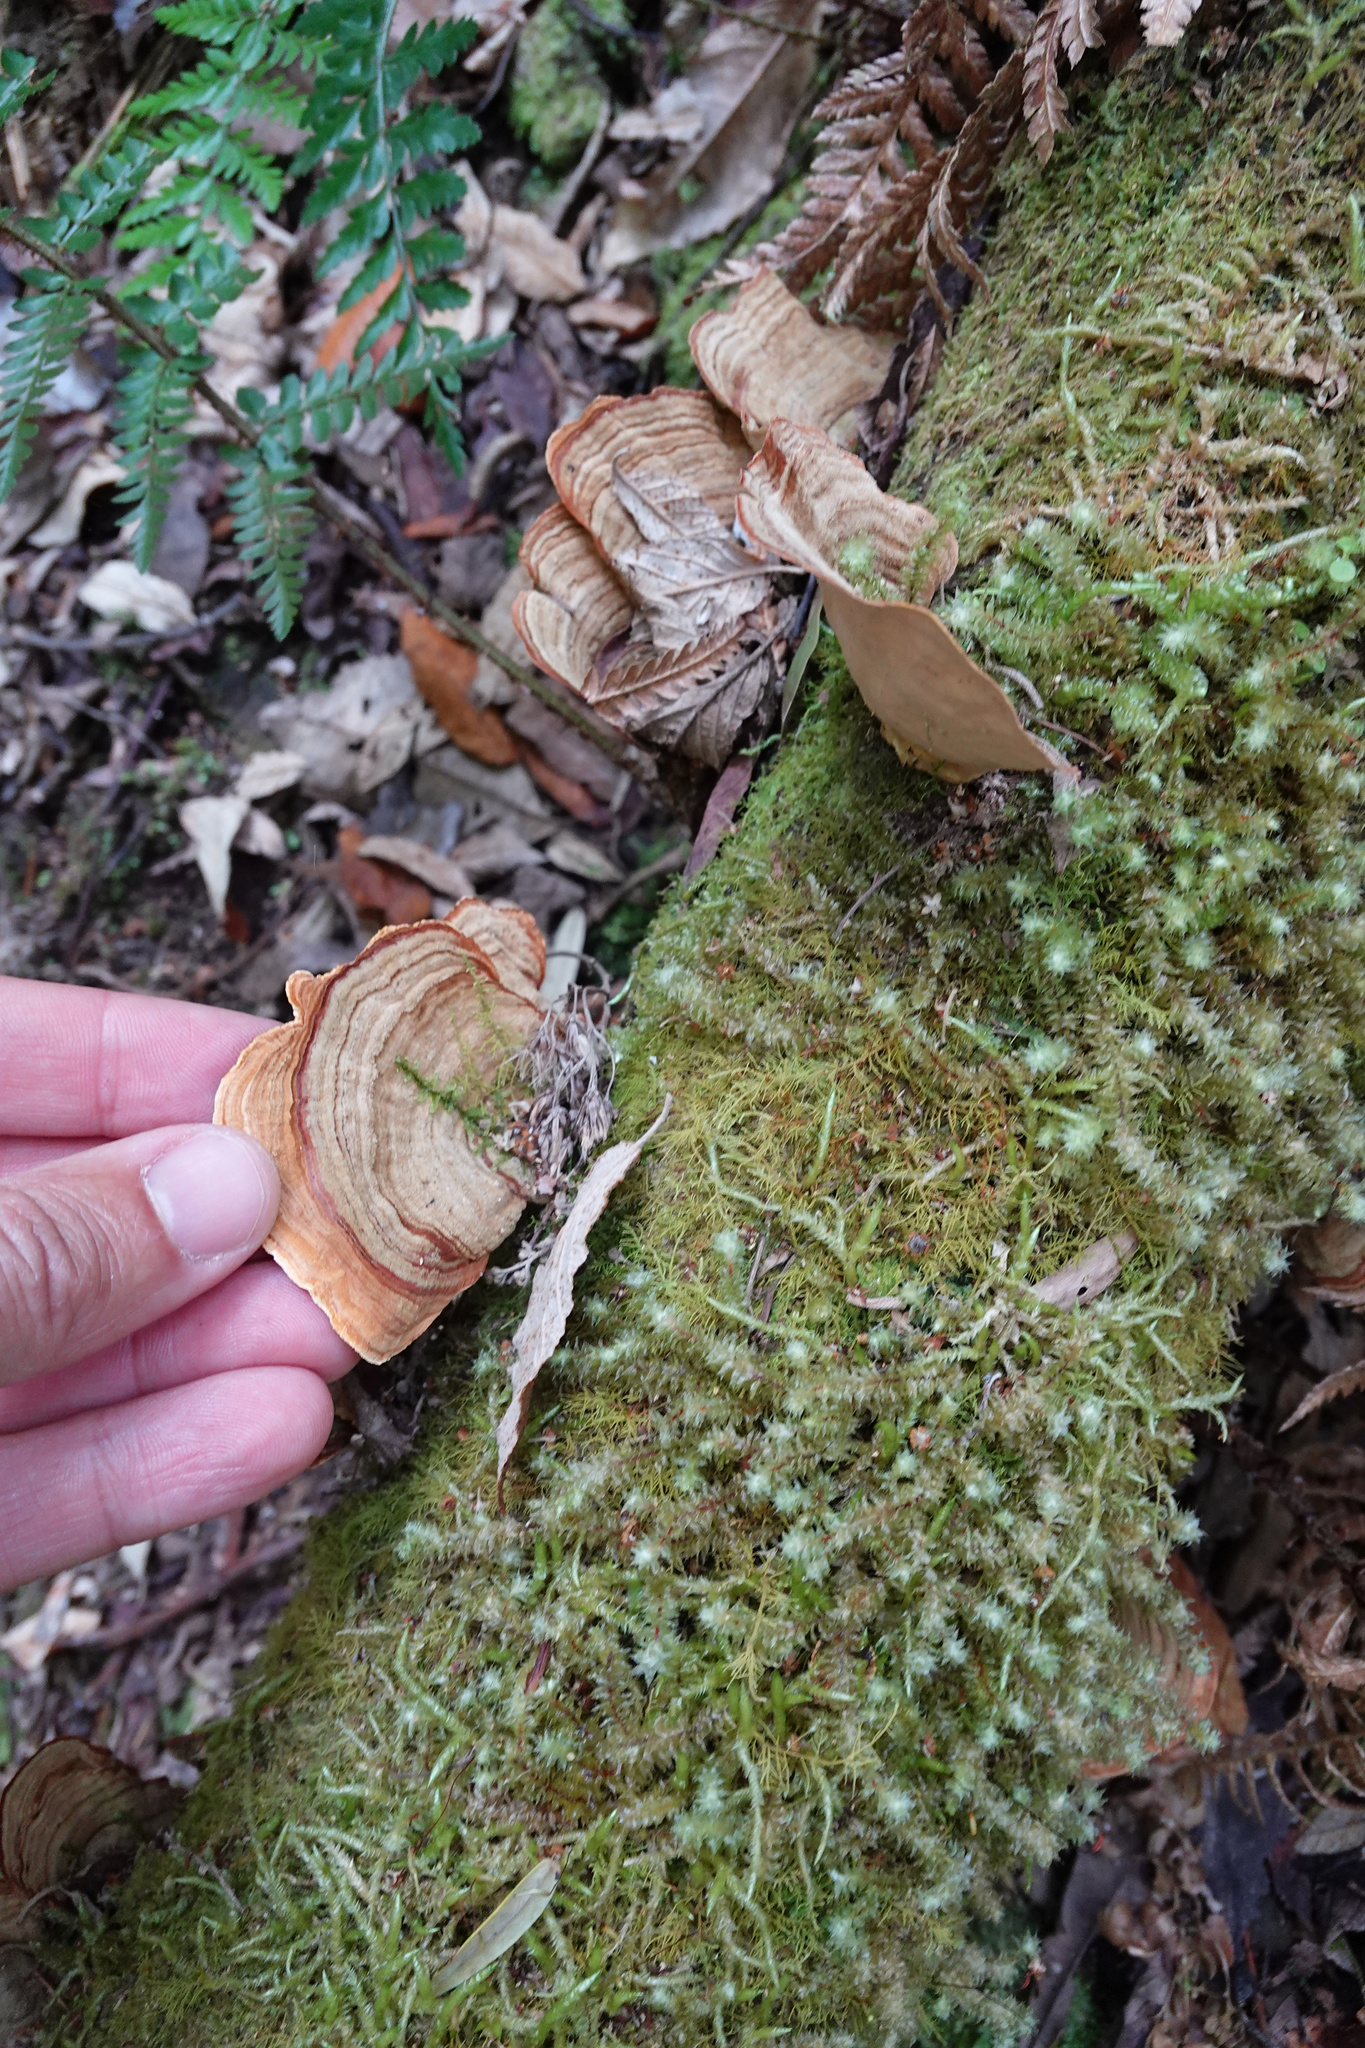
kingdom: Fungi
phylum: Basidiomycota
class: Agaricomycetes
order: Russulales
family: Stereaceae
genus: Stereum
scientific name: Stereum versicolor
